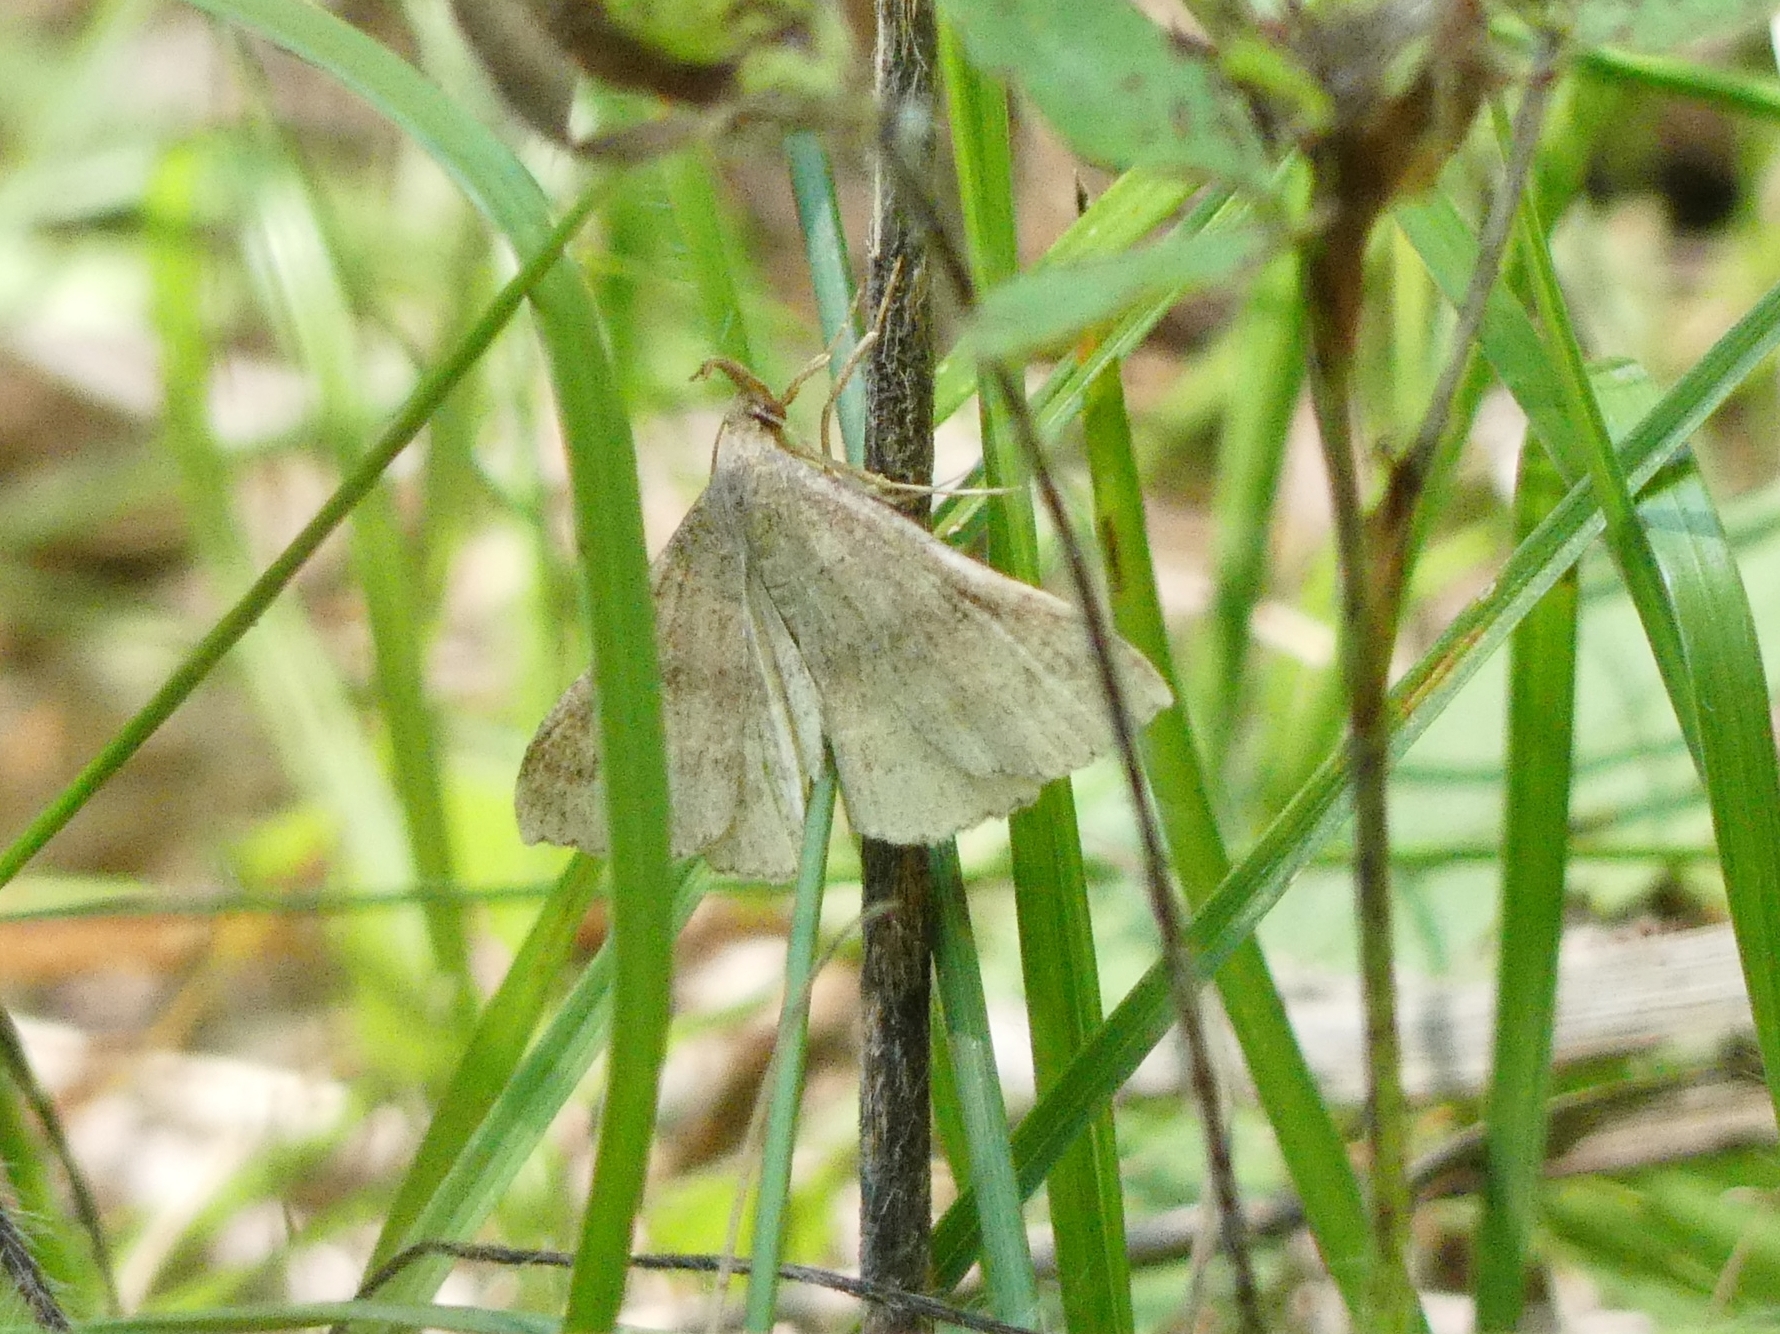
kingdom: Animalia
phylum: Arthropoda
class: Insecta
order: Lepidoptera
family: Erebidae
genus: Phalaenostola
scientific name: Phalaenostola eumelusalis
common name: Dark phalaenostola moth
